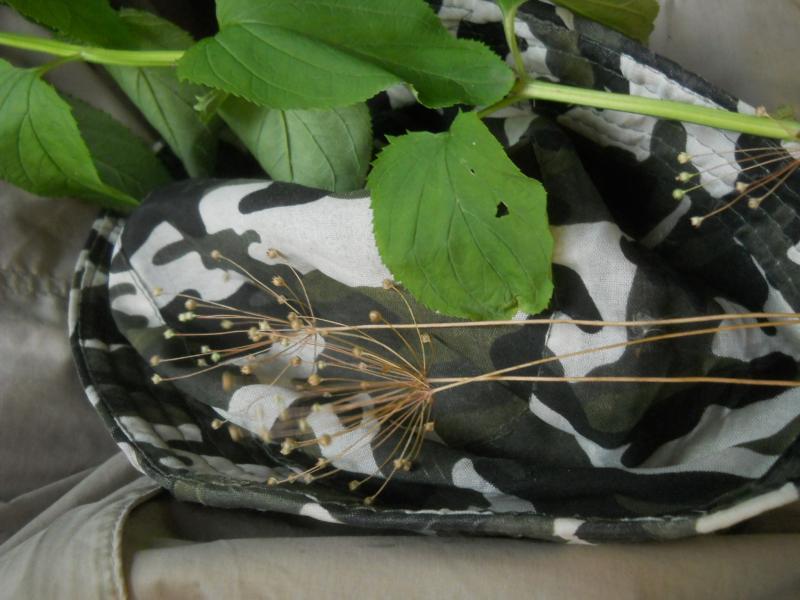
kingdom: Plantae
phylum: Tracheophyta
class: Magnoliopsida
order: Ericales
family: Primulaceae
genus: Androsace
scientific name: Androsace septentrionalis
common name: Hairy northern fairy-candelabra
